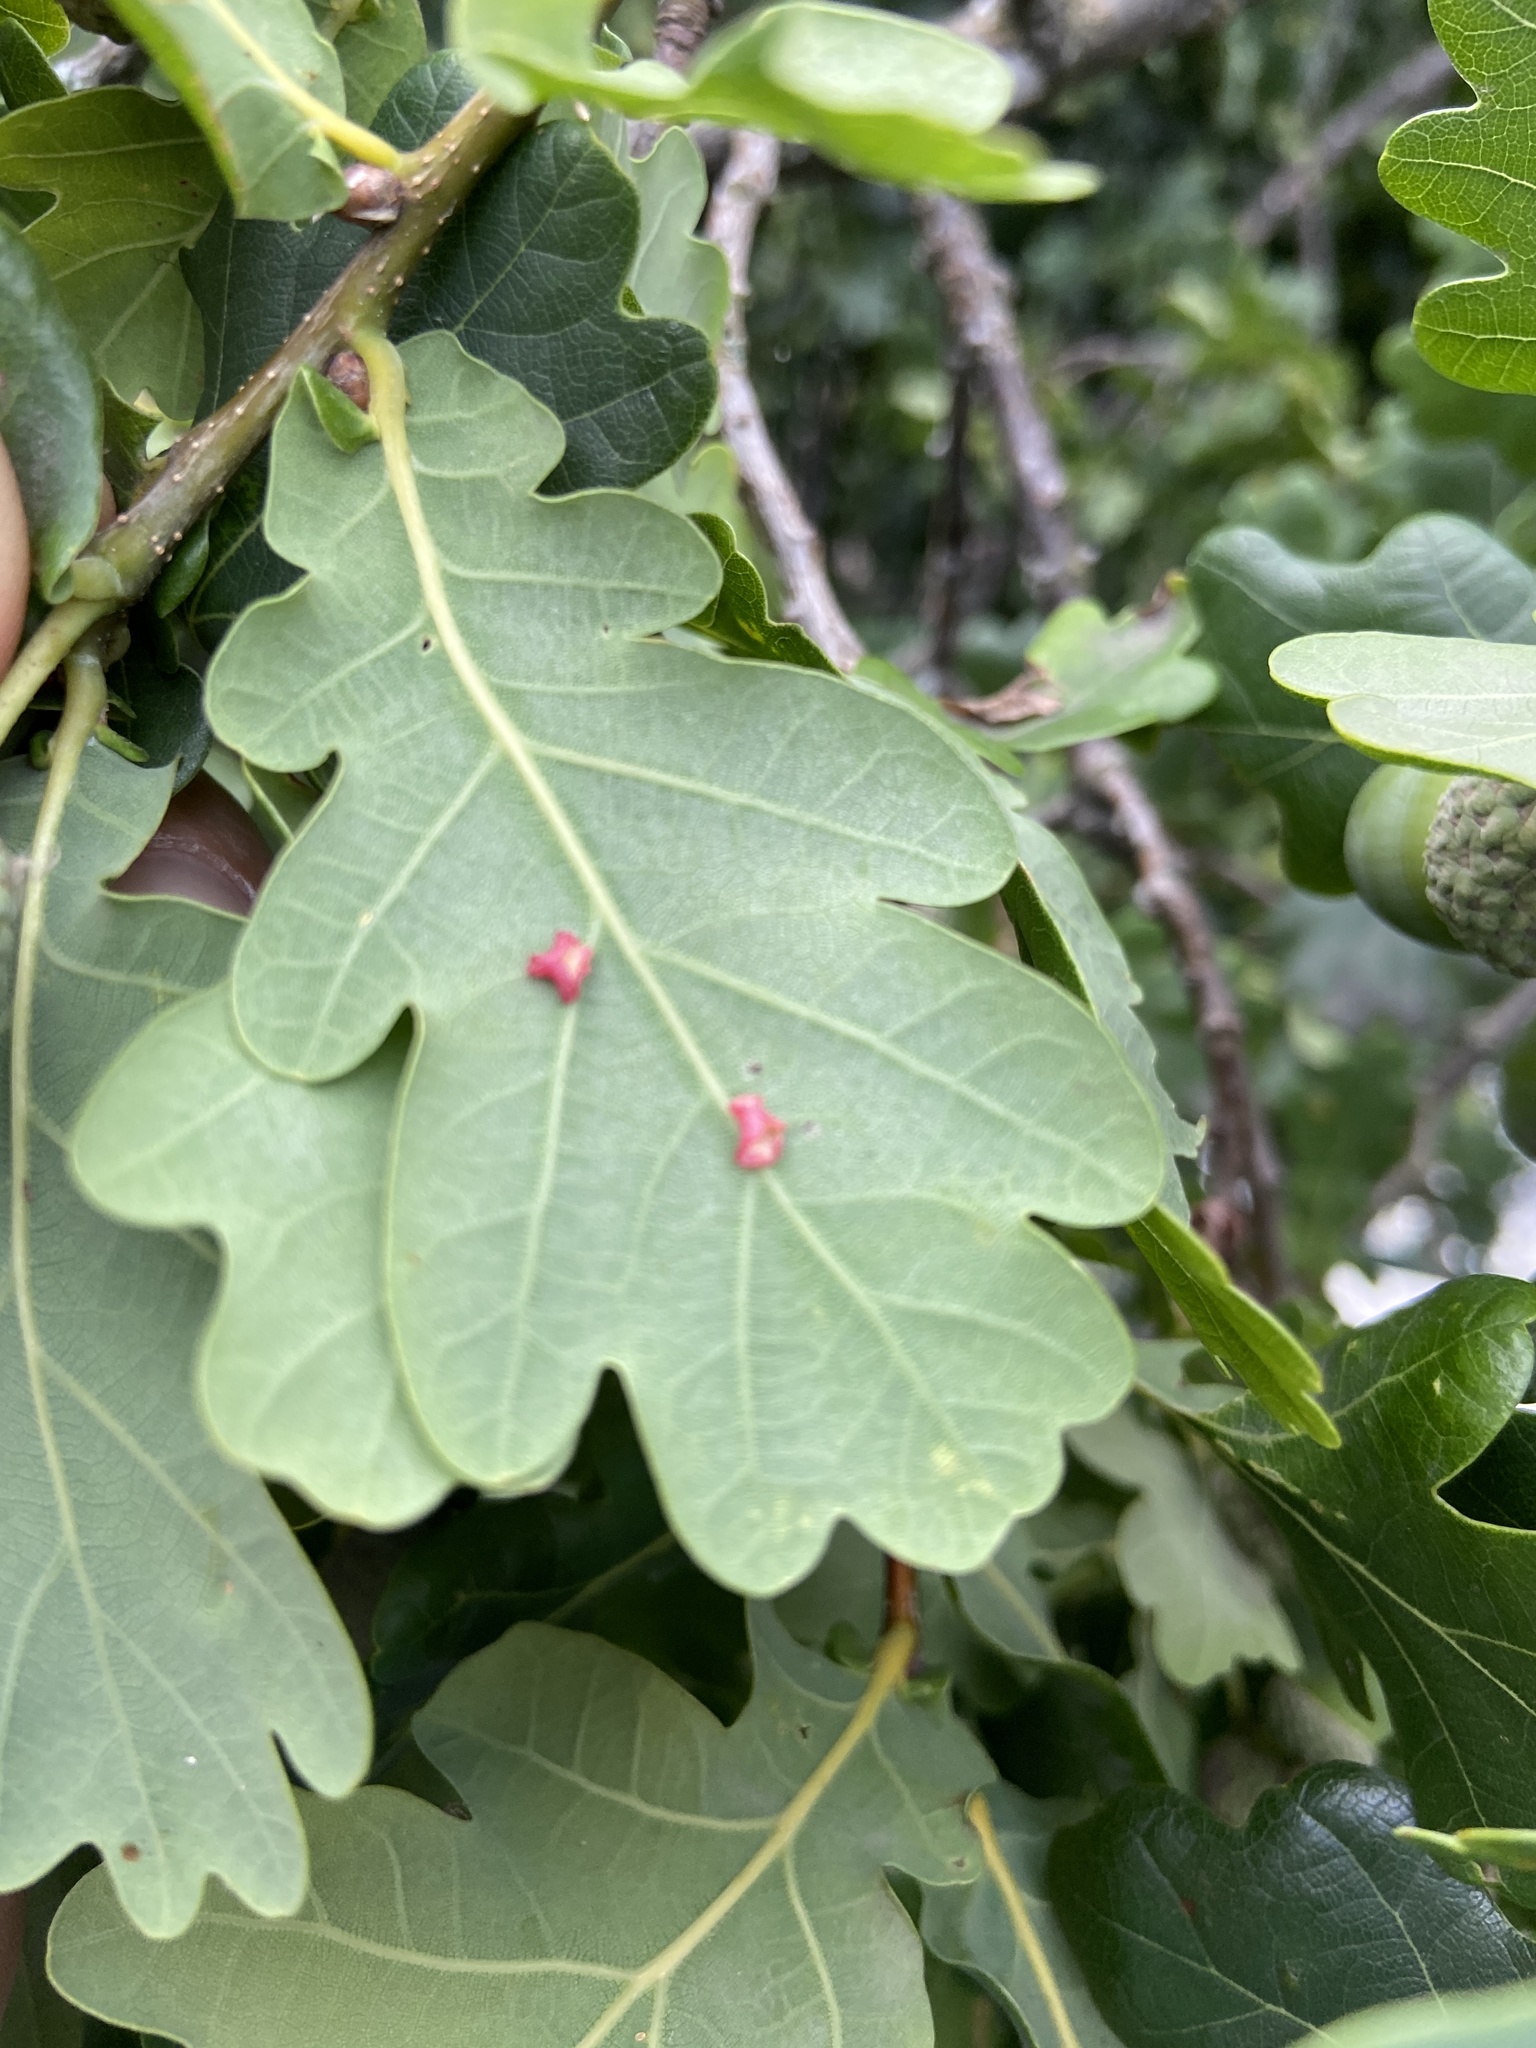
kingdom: Animalia
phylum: Arthropoda
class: Insecta
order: Hymenoptera
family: Cynipidae
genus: Neuroterus
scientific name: Neuroterus albipes
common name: Smooth spangle gall
